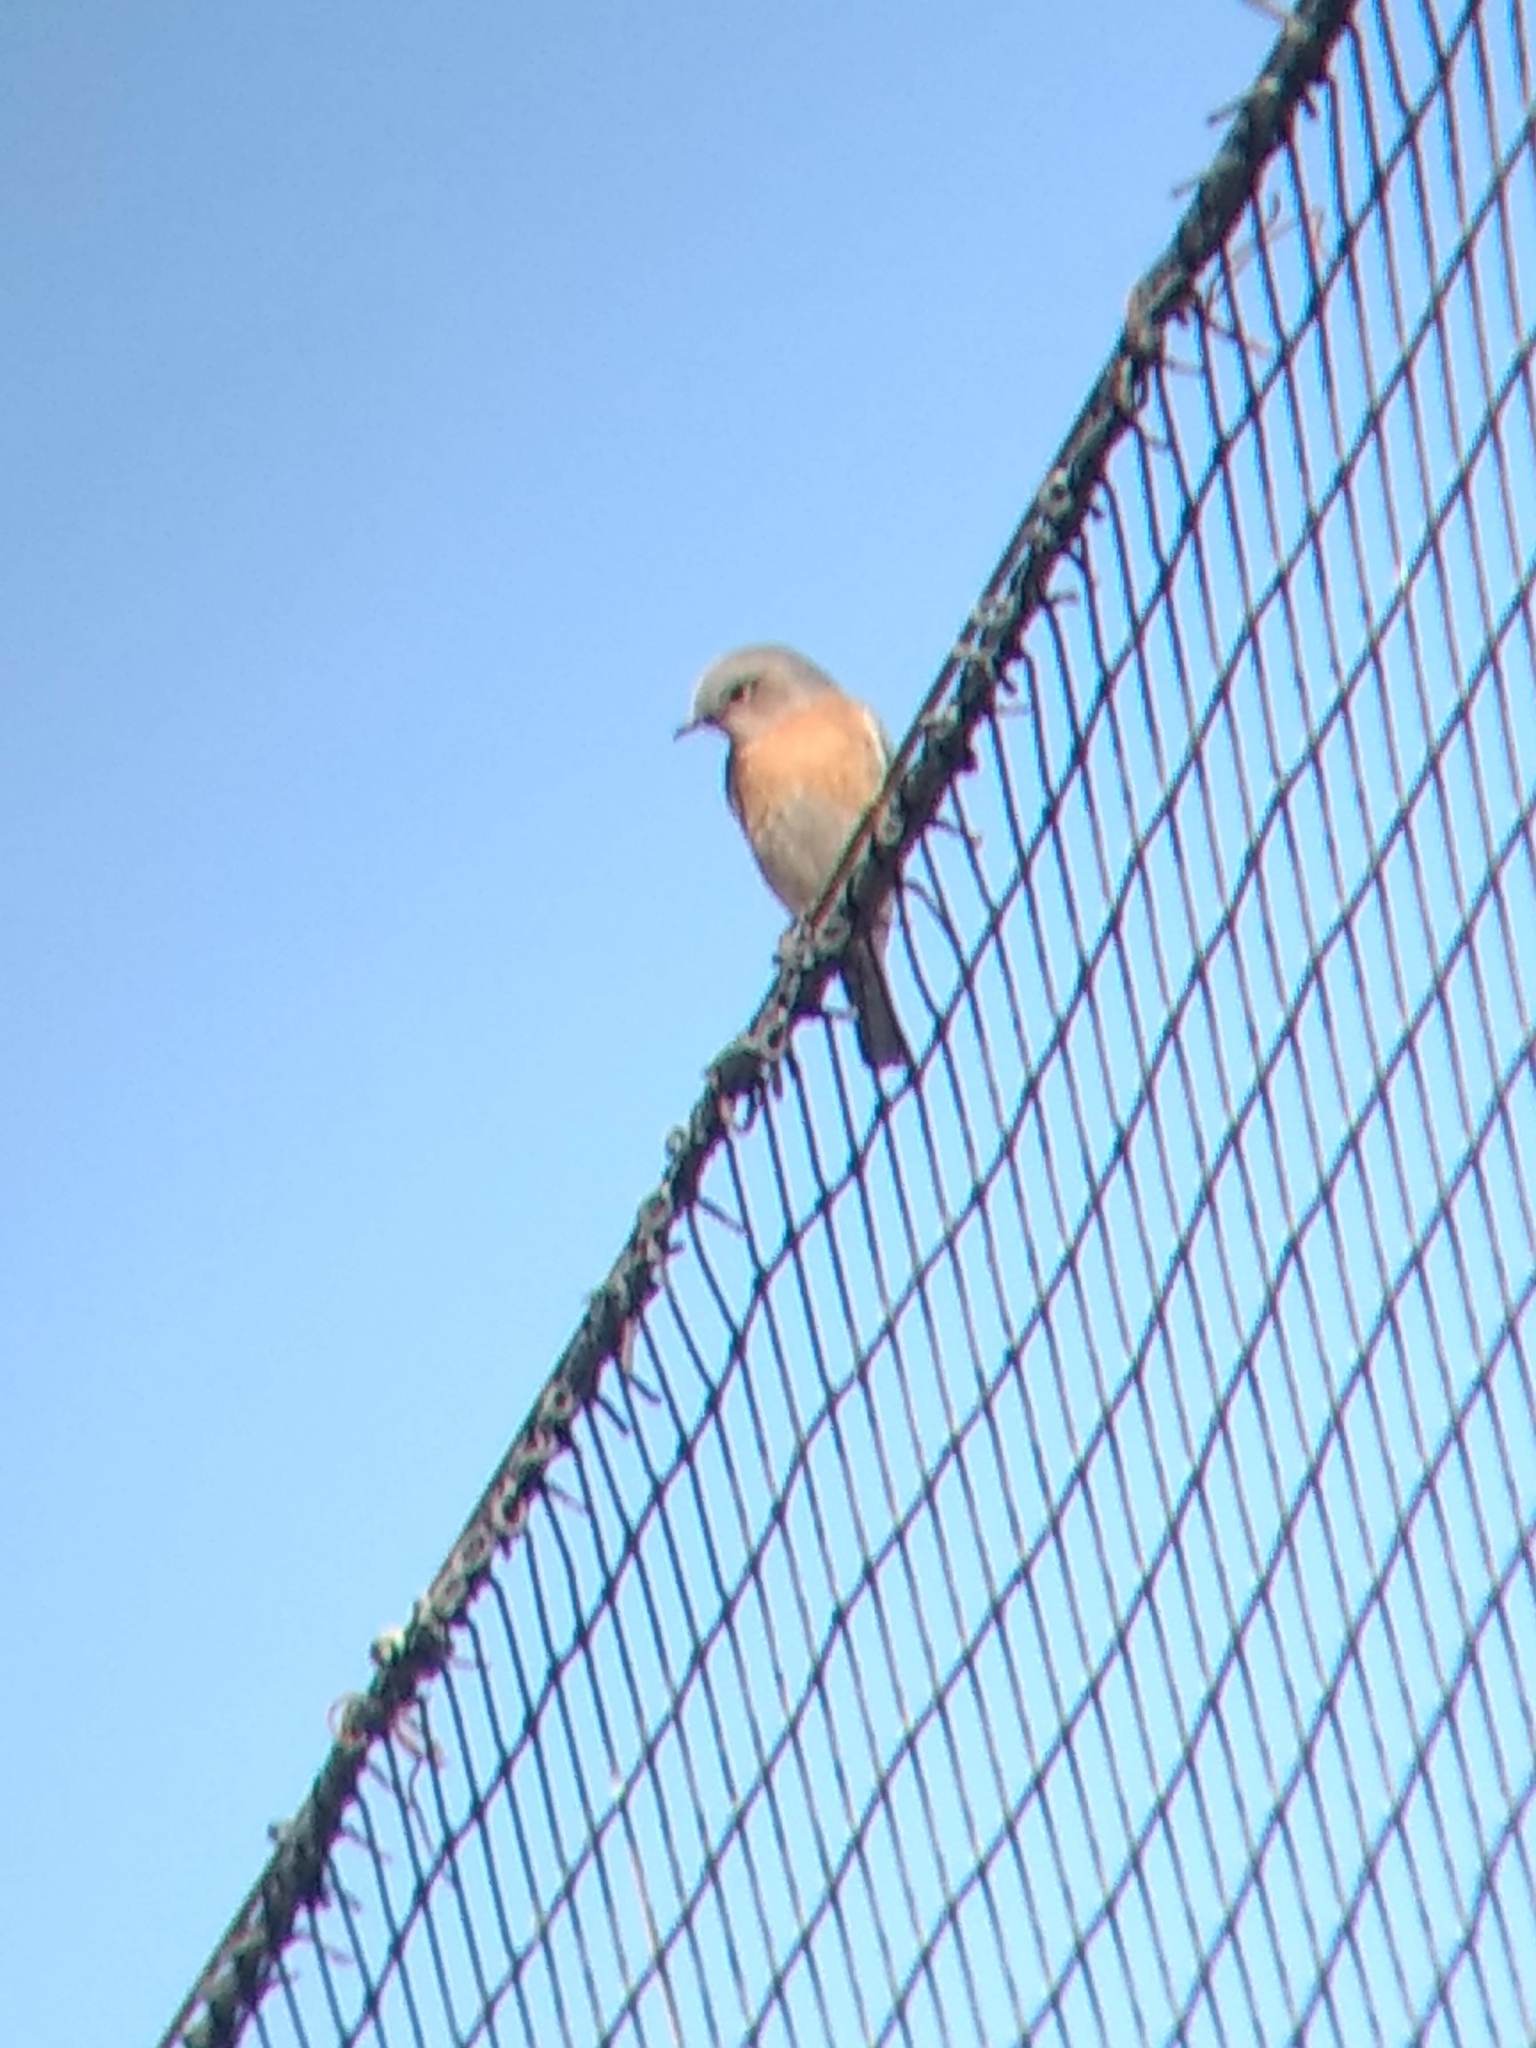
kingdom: Animalia
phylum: Chordata
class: Aves
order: Passeriformes
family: Turdidae
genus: Sialia
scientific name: Sialia mexicana
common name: Western bluebird
